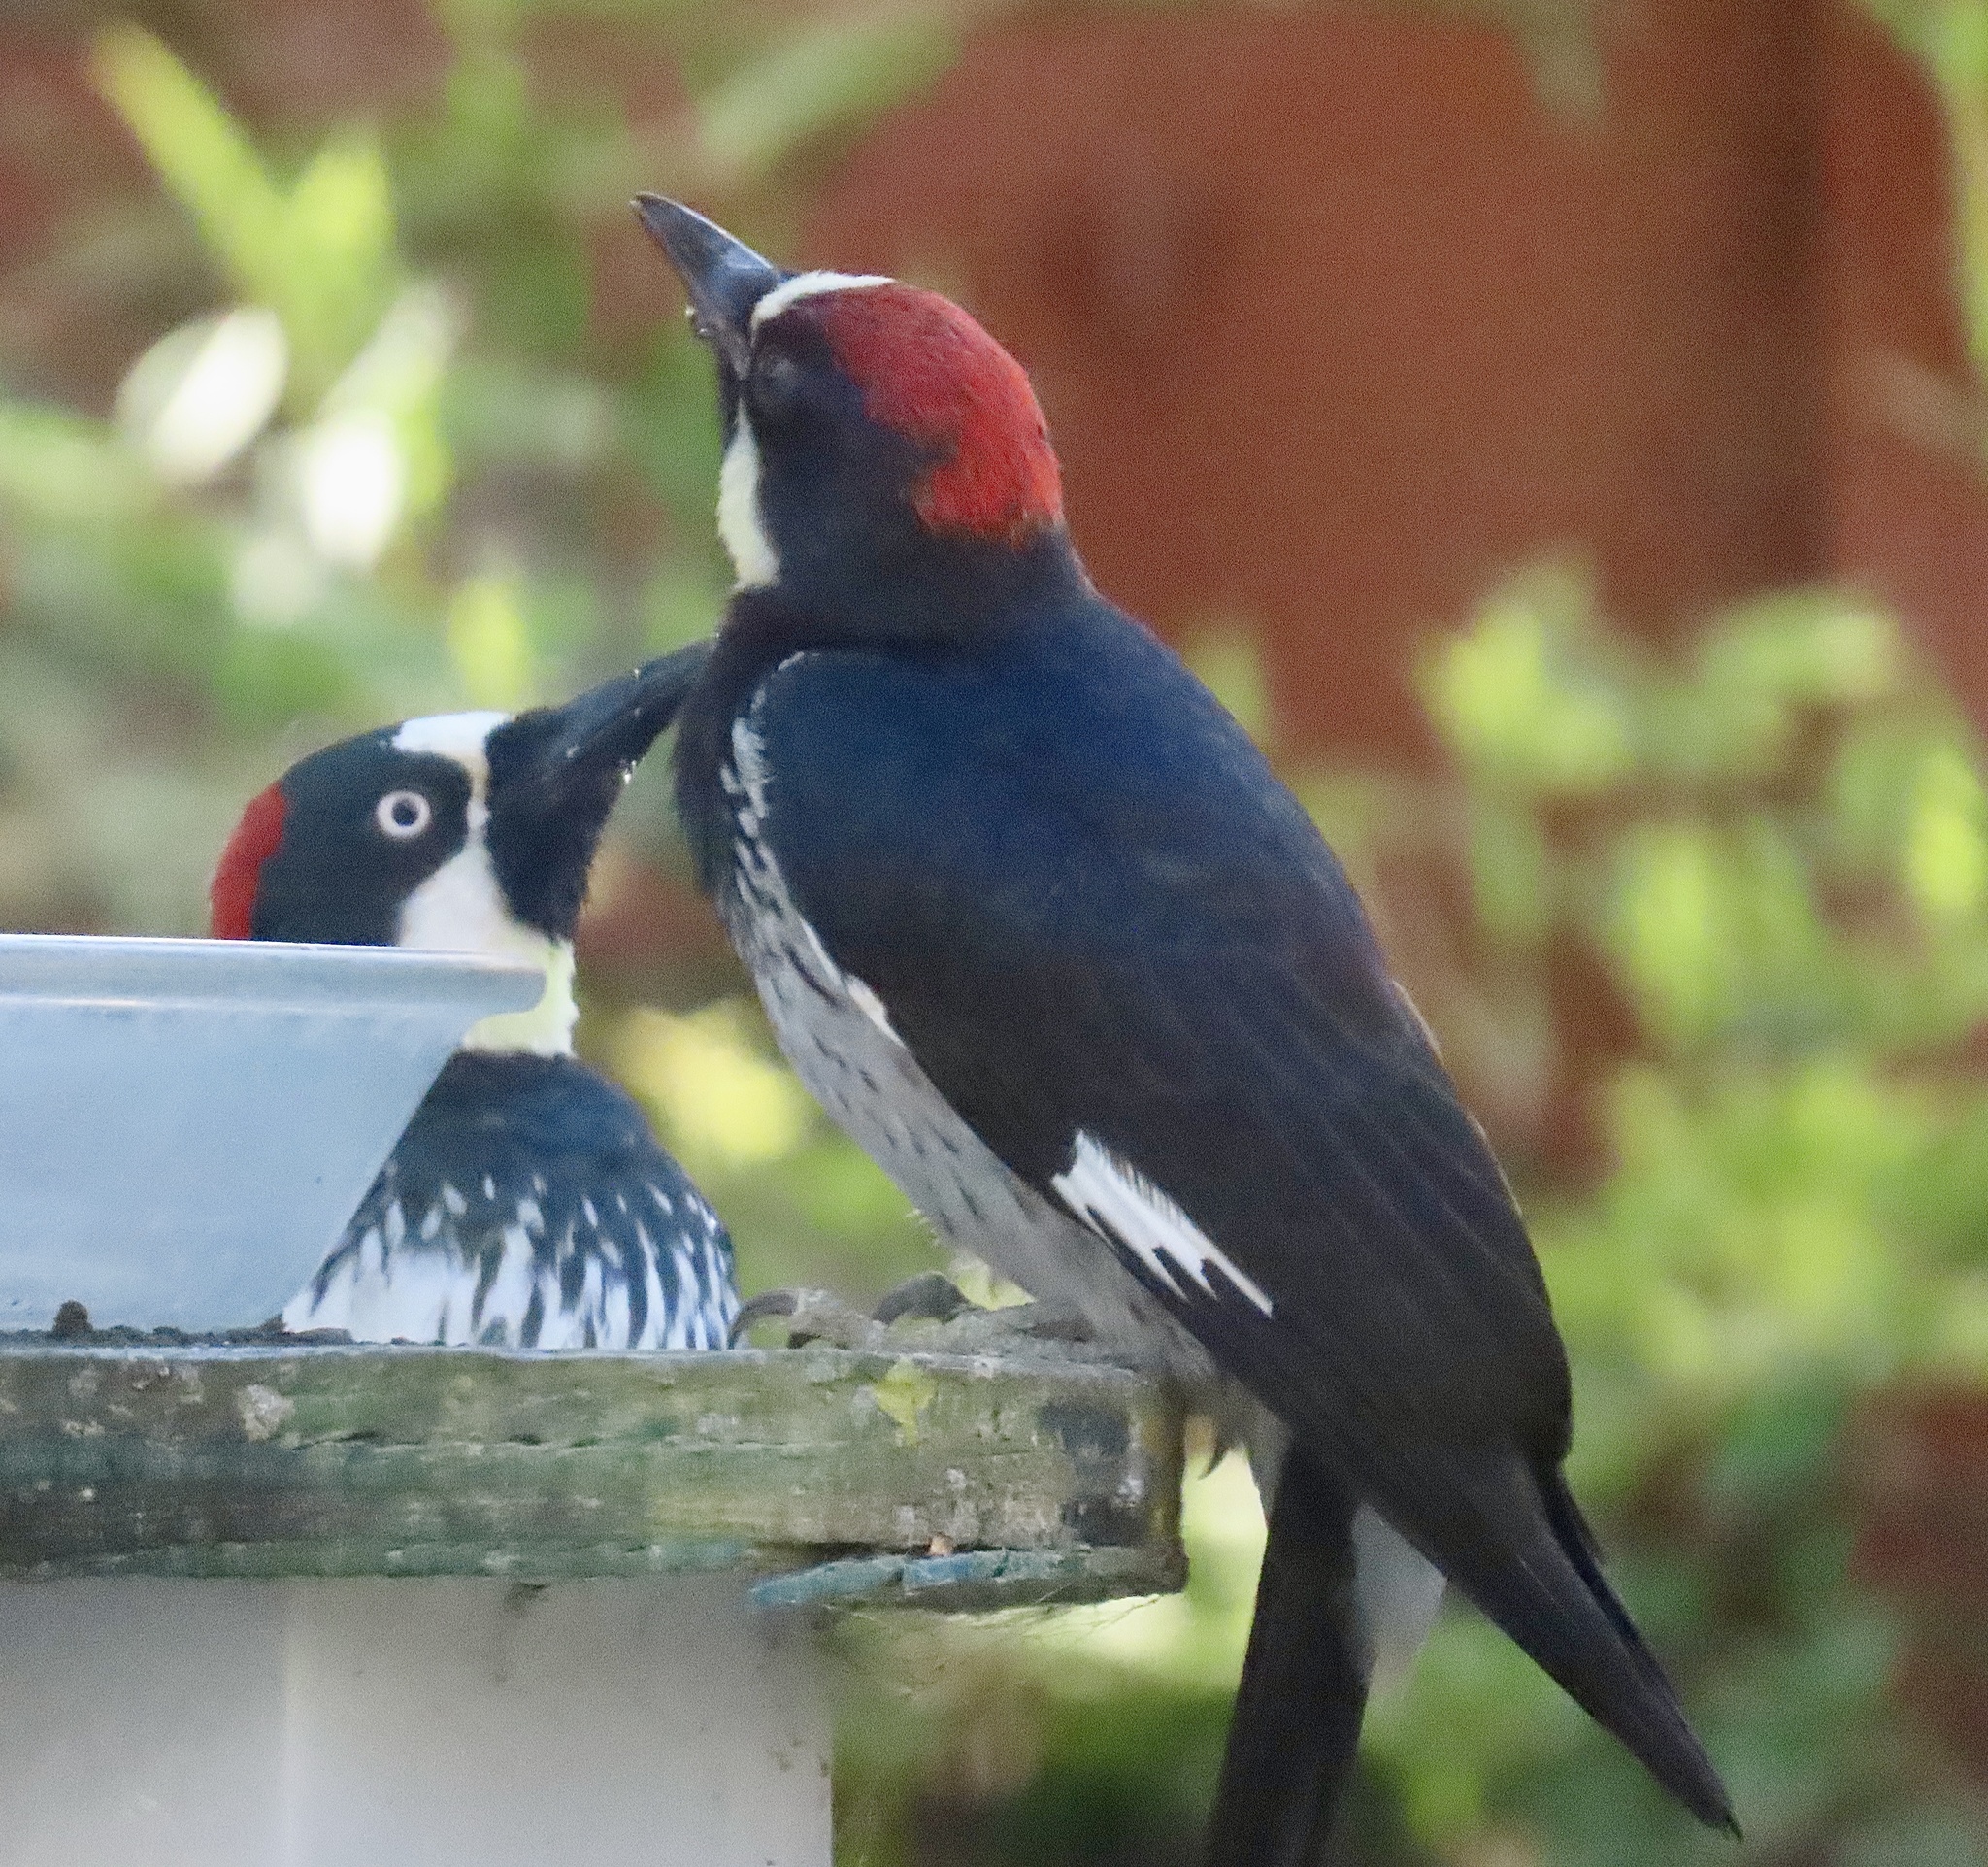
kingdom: Animalia
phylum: Chordata
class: Aves
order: Piciformes
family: Picidae
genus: Melanerpes
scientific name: Melanerpes formicivorus
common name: Acorn woodpecker
